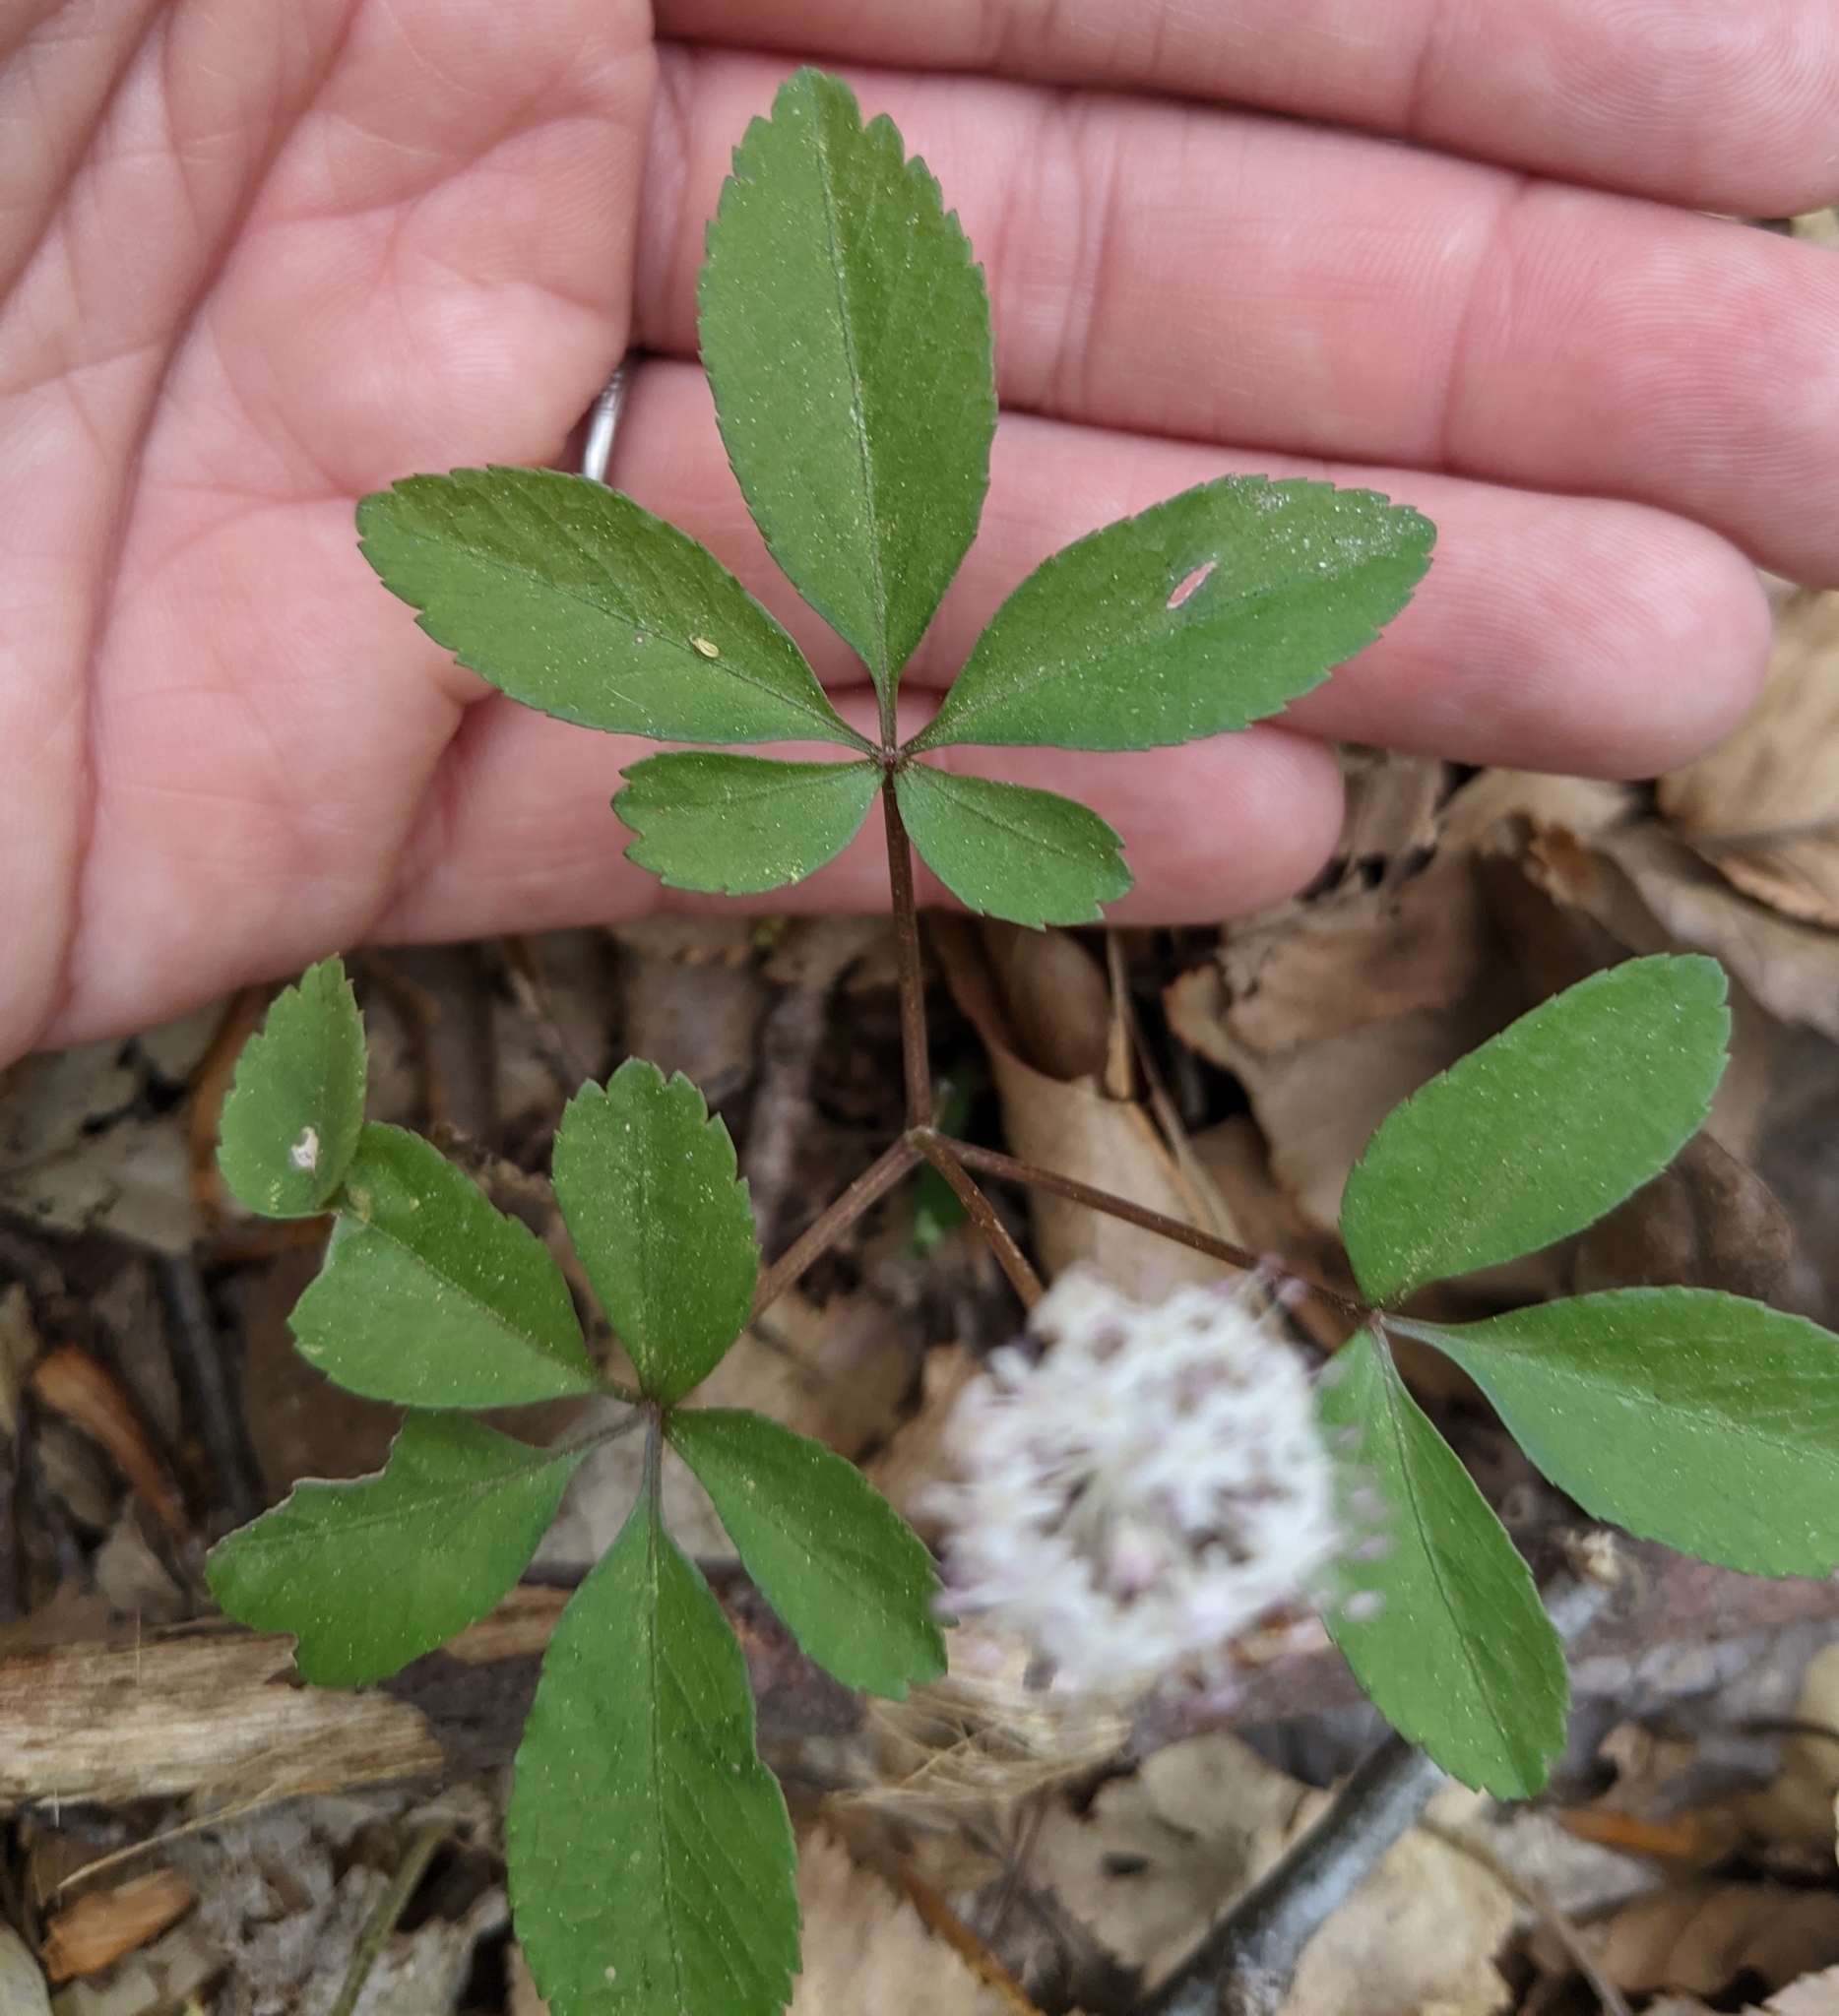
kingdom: Plantae
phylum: Tracheophyta
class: Magnoliopsida
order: Apiales
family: Araliaceae
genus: Panax
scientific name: Panax trifolius
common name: Dwarf ginseng
